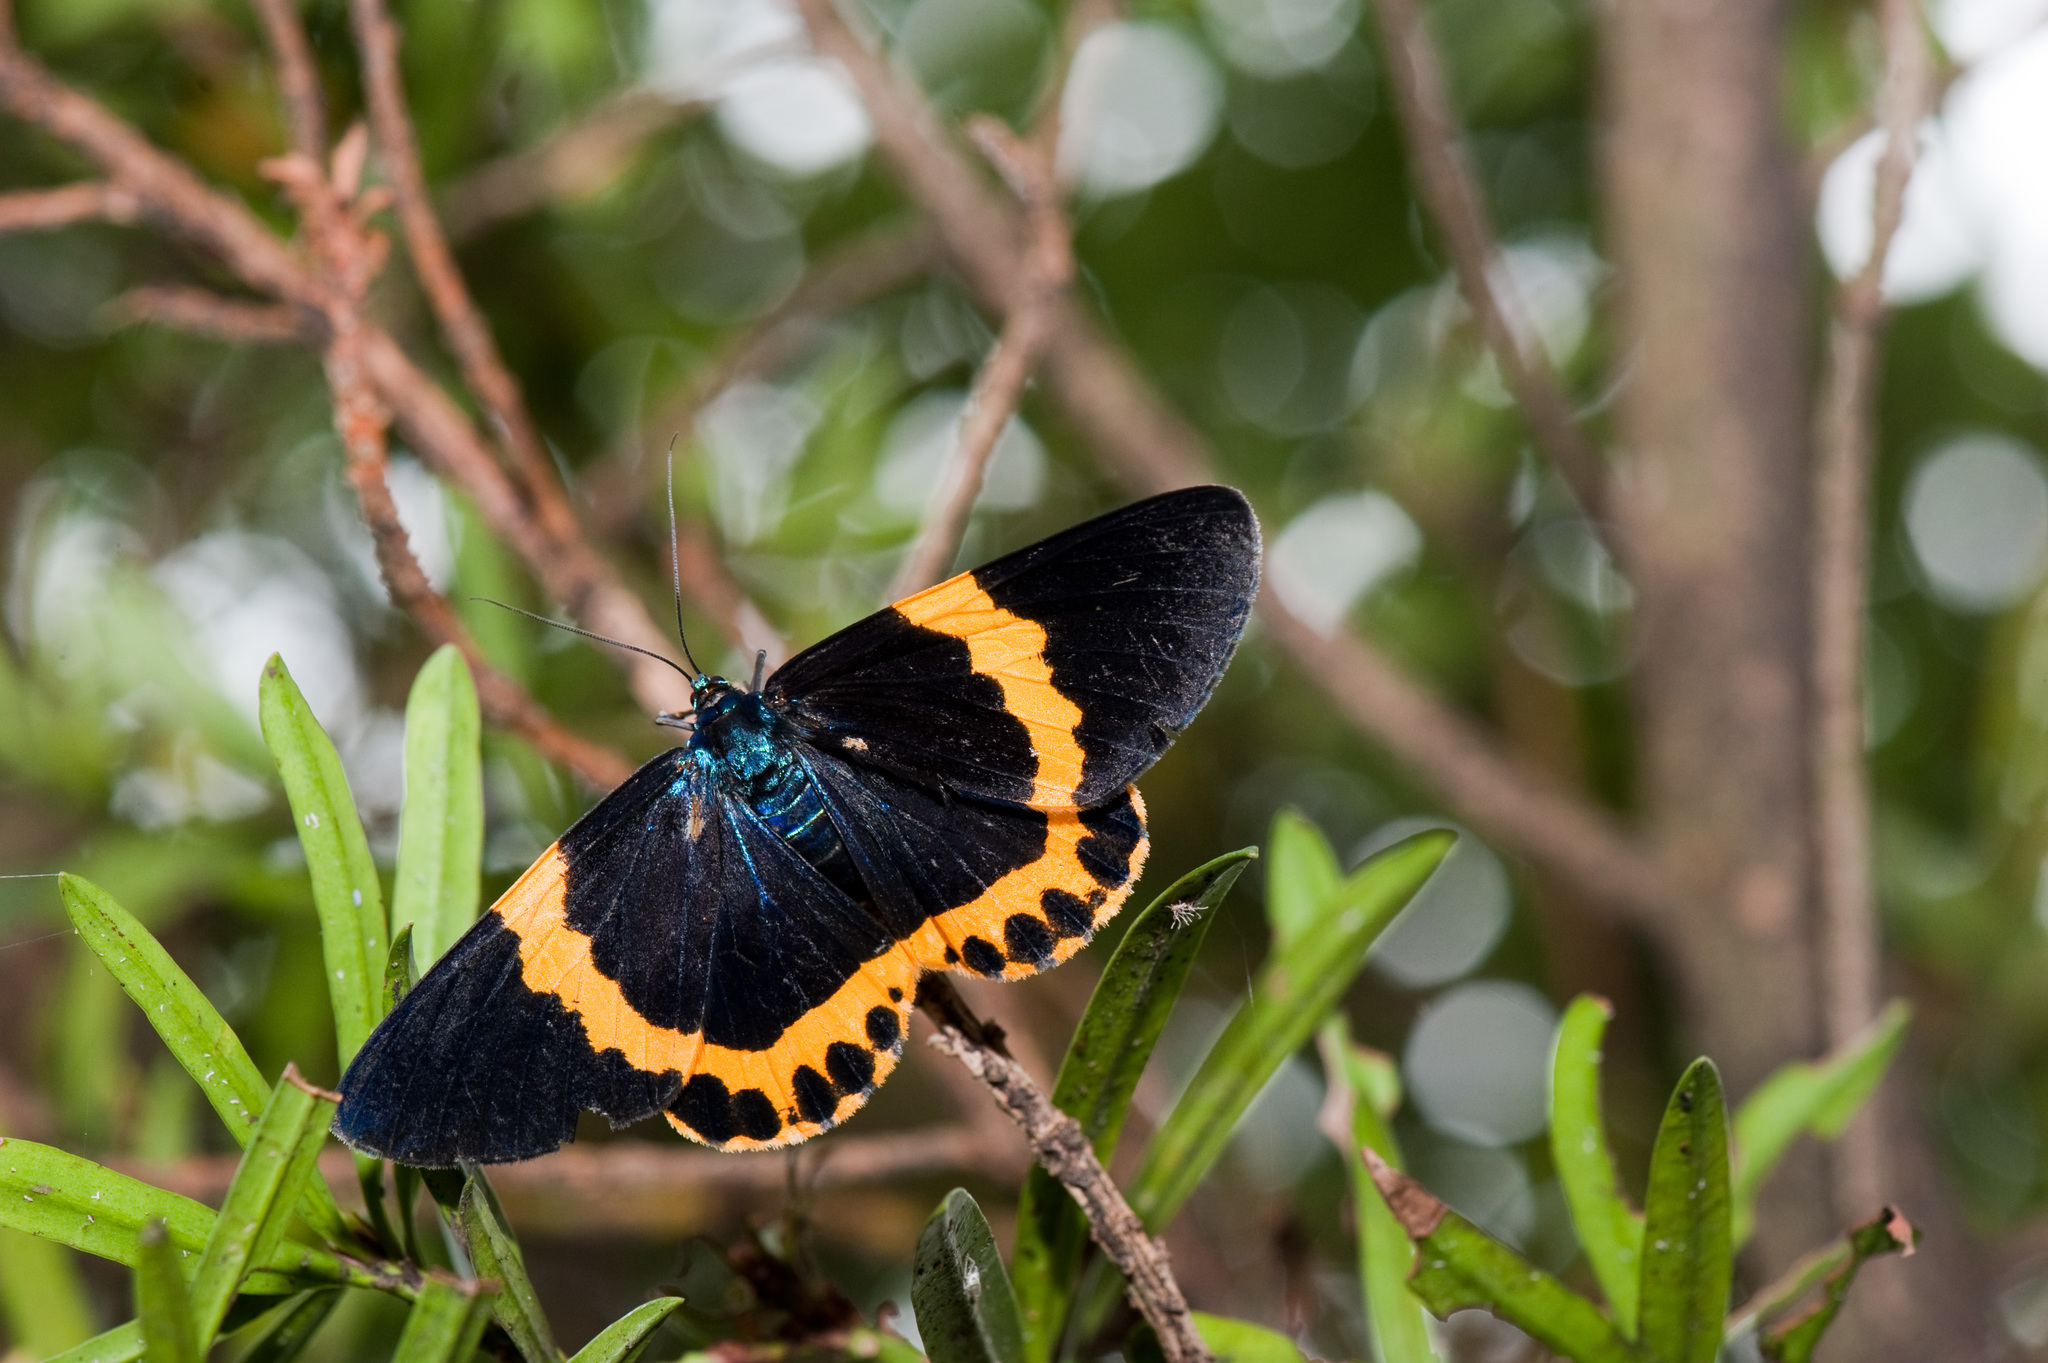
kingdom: Animalia
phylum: Arthropoda
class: Insecta
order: Lepidoptera
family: Geometridae
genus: Milionia
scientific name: Milionia basalis
